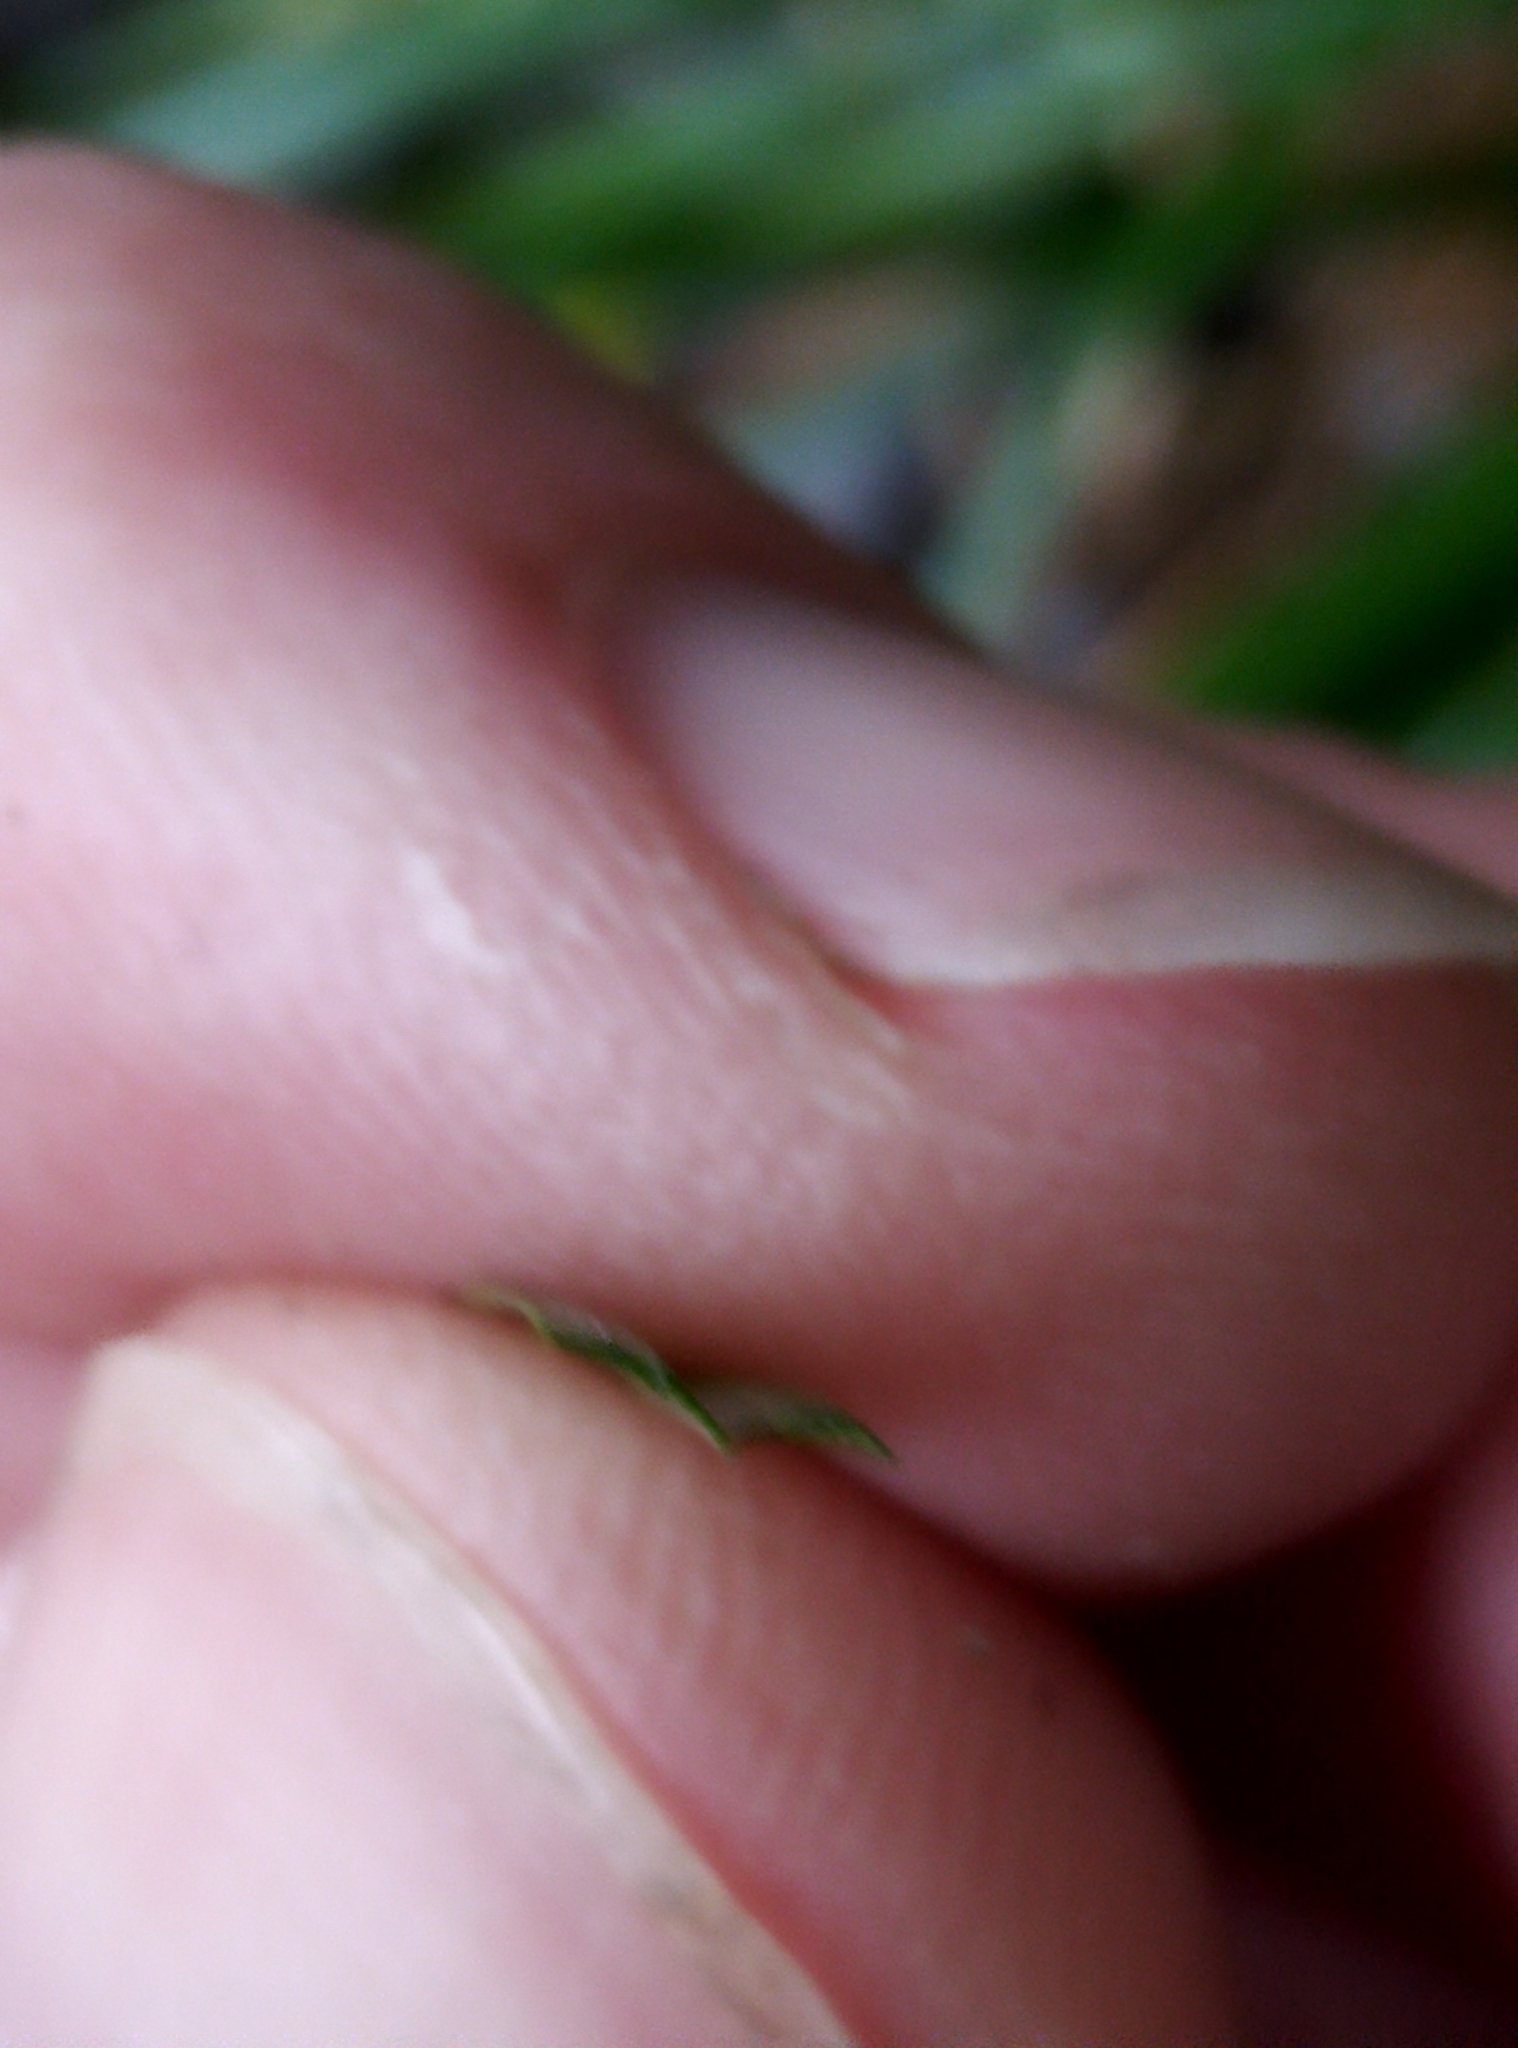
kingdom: Plantae
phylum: Tracheophyta
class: Liliopsida
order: Poales
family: Cyperaceae
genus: Carex
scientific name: Carex dissita
